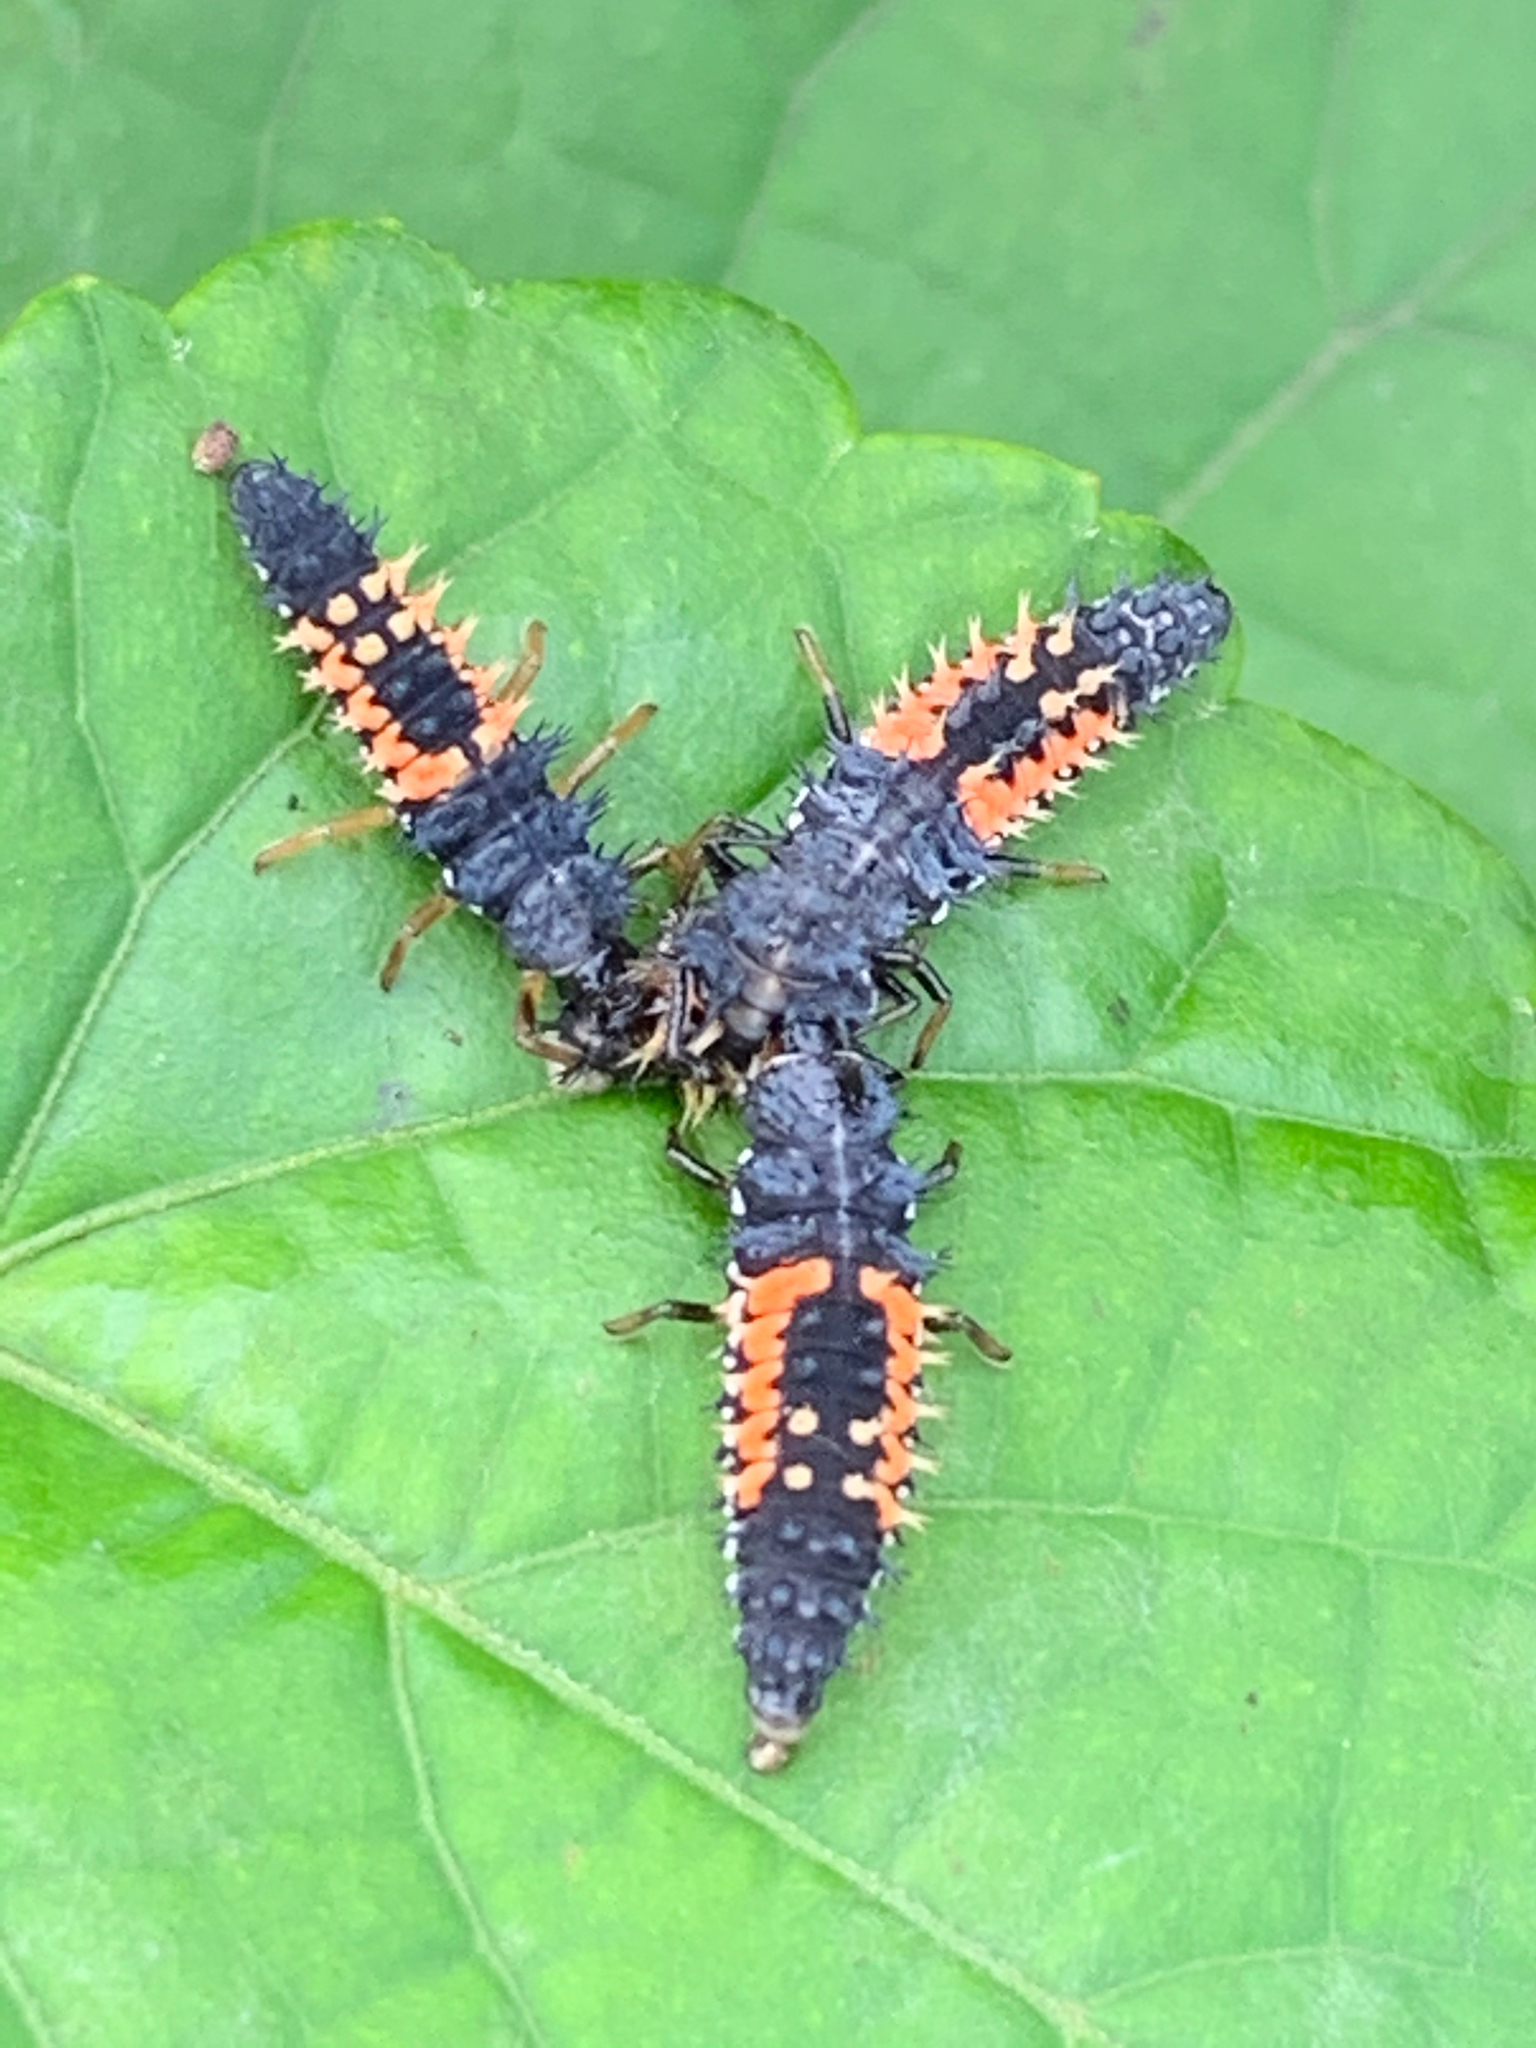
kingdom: Animalia
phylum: Arthropoda
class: Insecta
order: Coleoptera
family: Coccinellidae
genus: Harmonia
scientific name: Harmonia axyridis
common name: Harlequin ladybird
